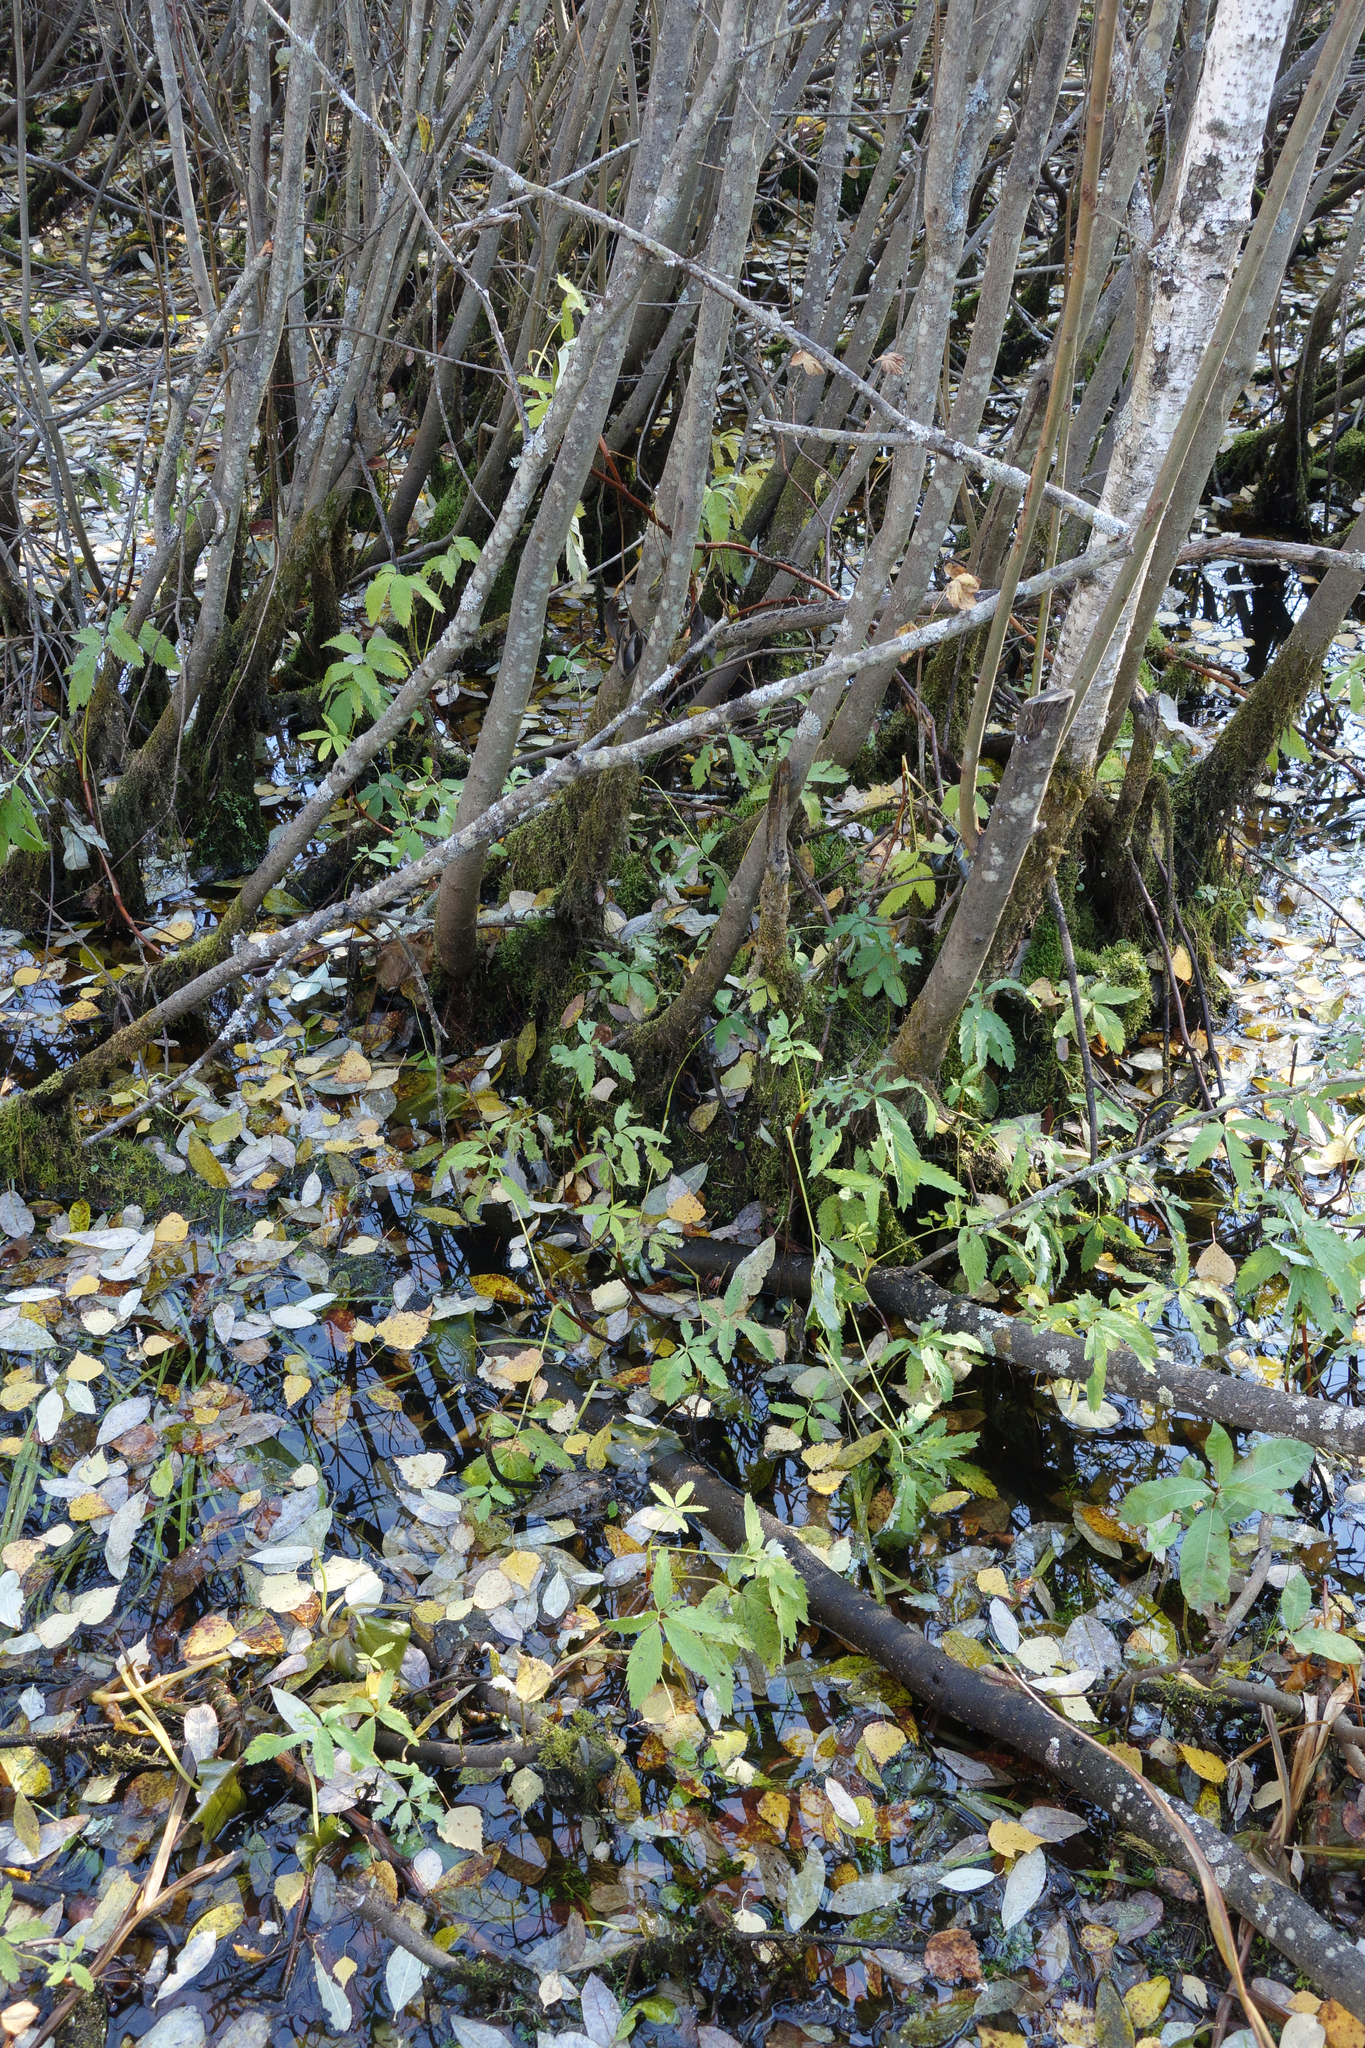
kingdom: Plantae
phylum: Tracheophyta
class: Magnoliopsida
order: Rosales
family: Rosaceae
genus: Comarum
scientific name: Comarum palustre
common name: Marsh cinquefoil
